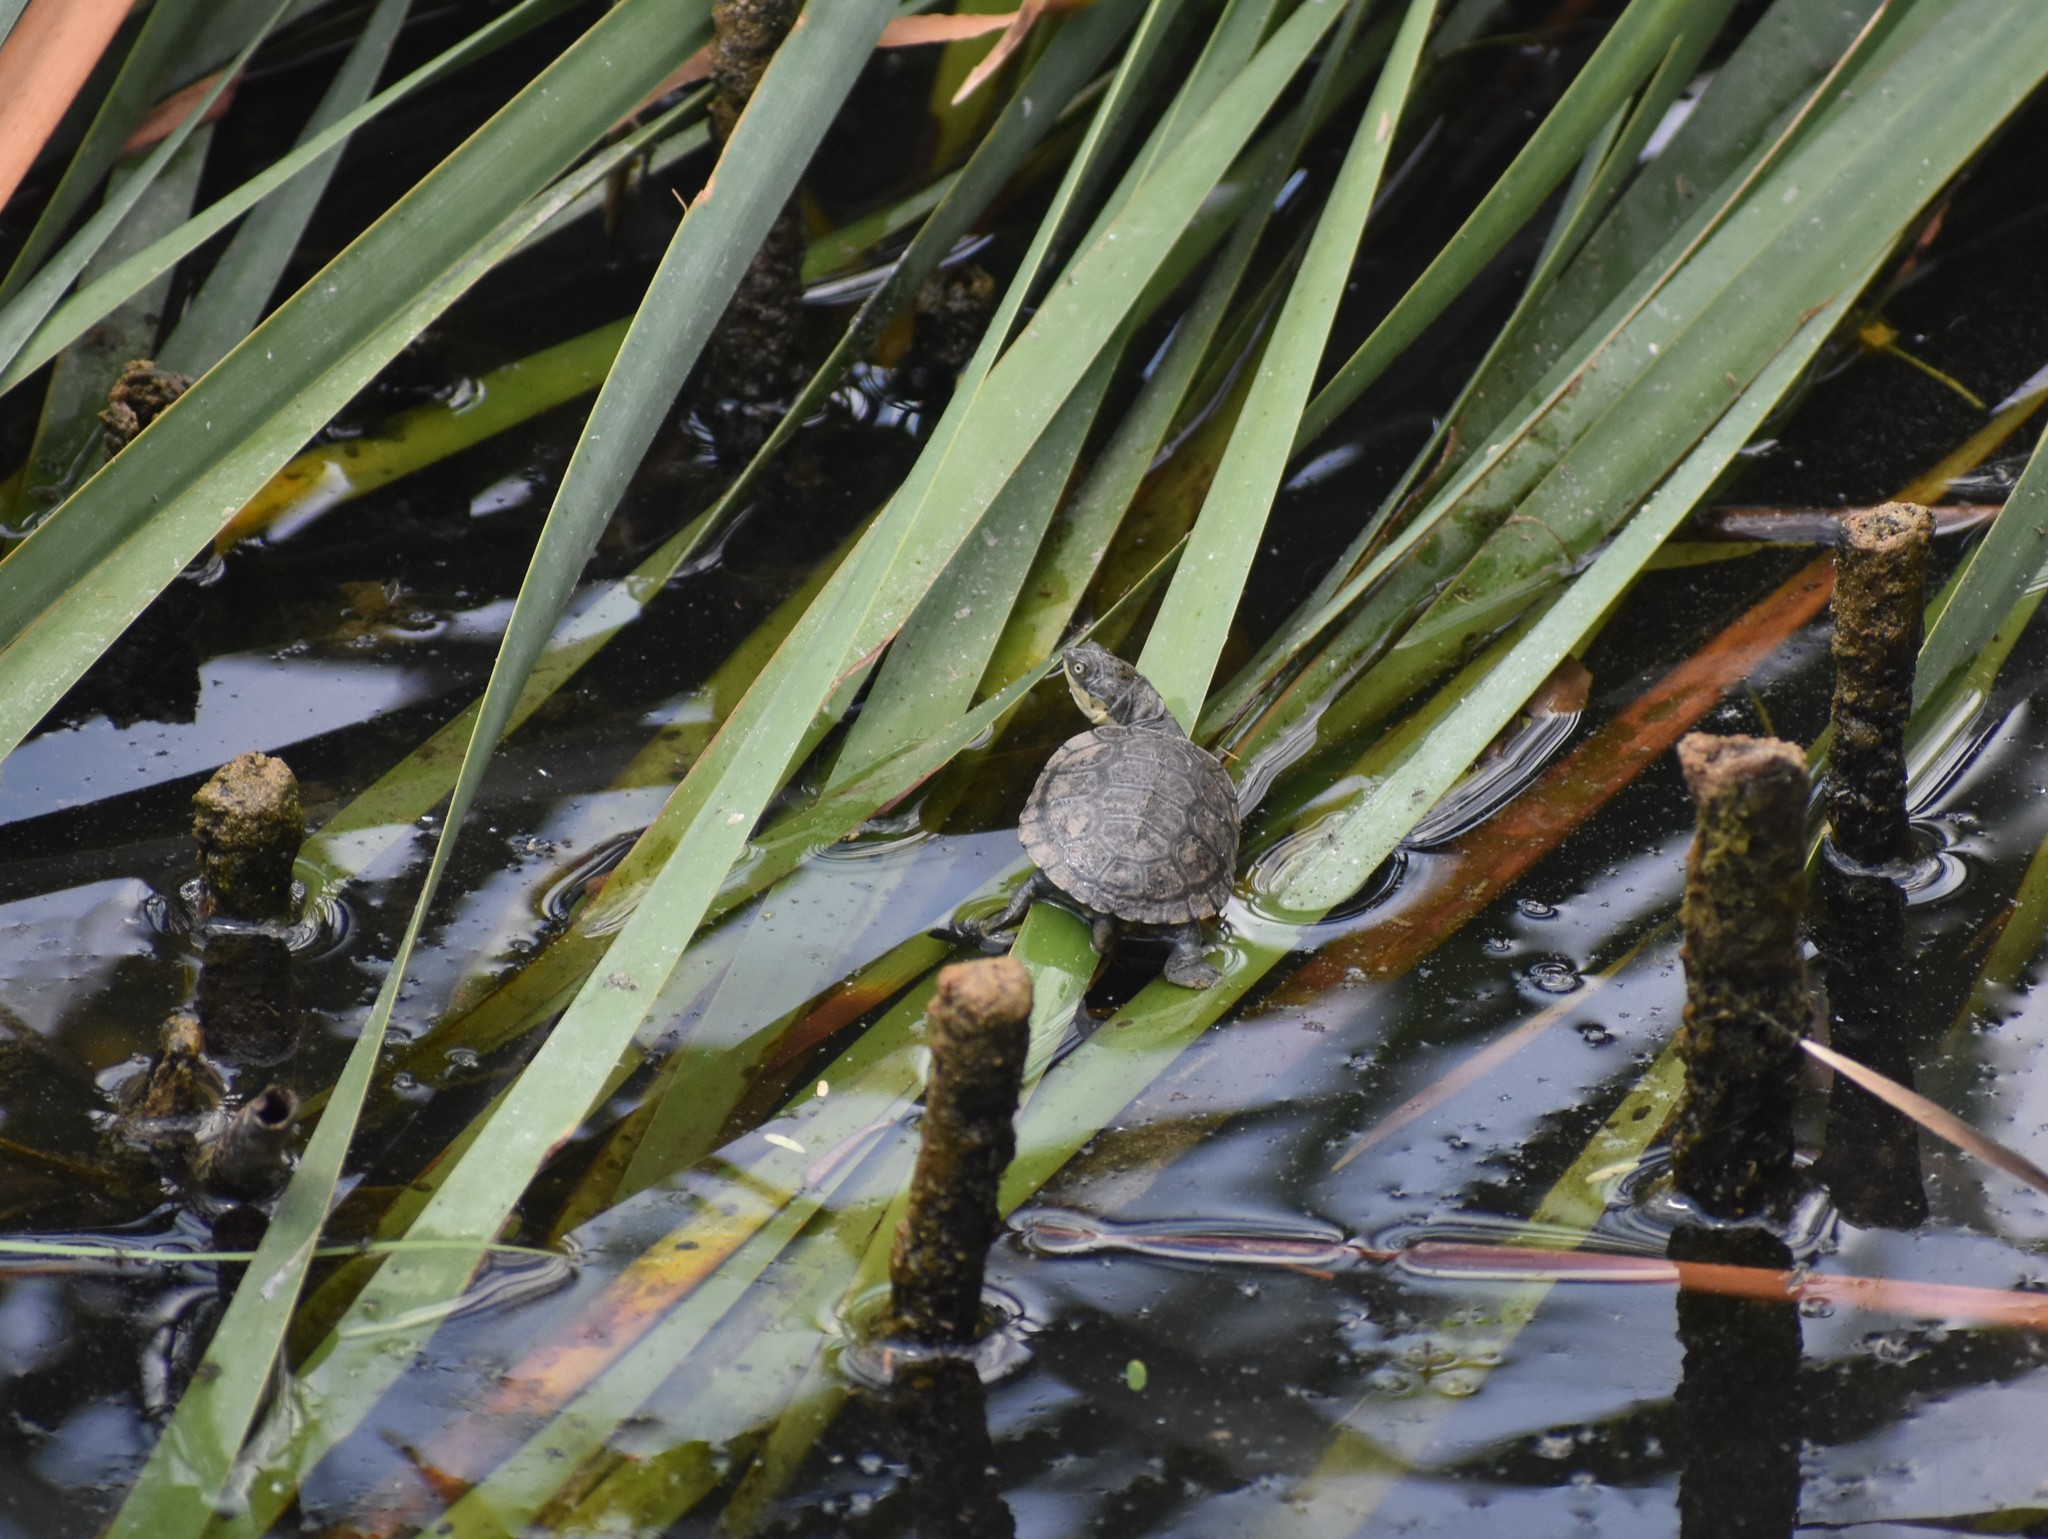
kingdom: Animalia
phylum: Chordata
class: Testudines
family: Pelomedusidae
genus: Pelomedusa
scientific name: Pelomedusa galeata
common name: South african helmeted terrapin
